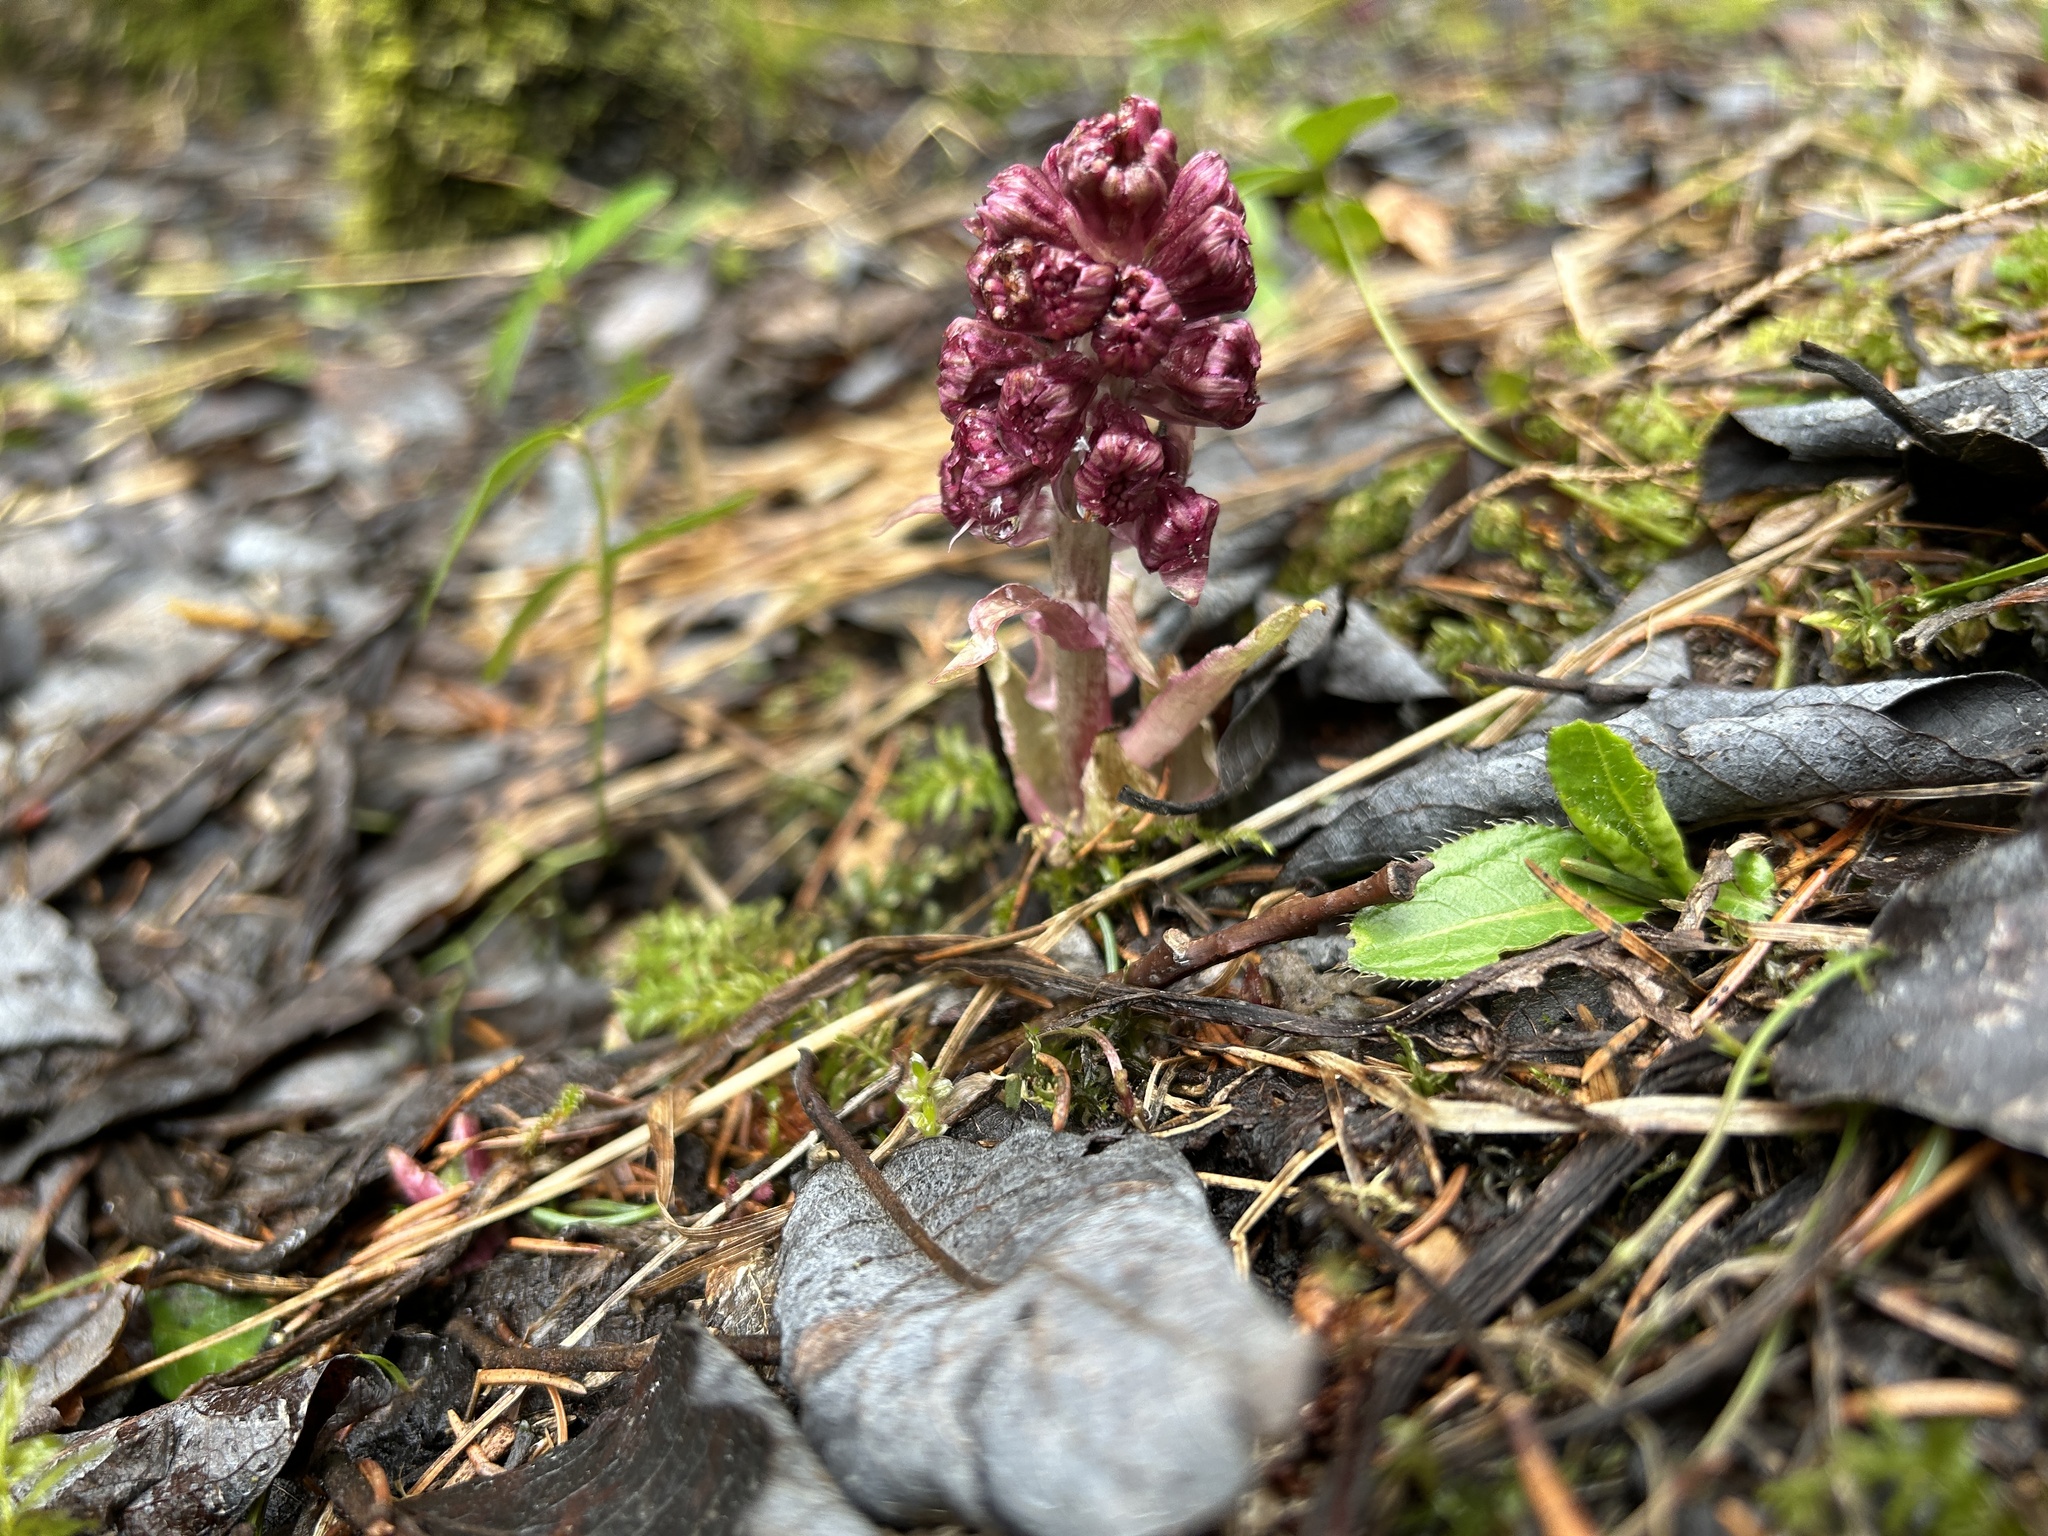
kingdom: Plantae
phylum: Tracheophyta
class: Magnoliopsida
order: Asterales
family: Asteraceae
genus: Petasites
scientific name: Petasites hybridus
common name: Butterbur
